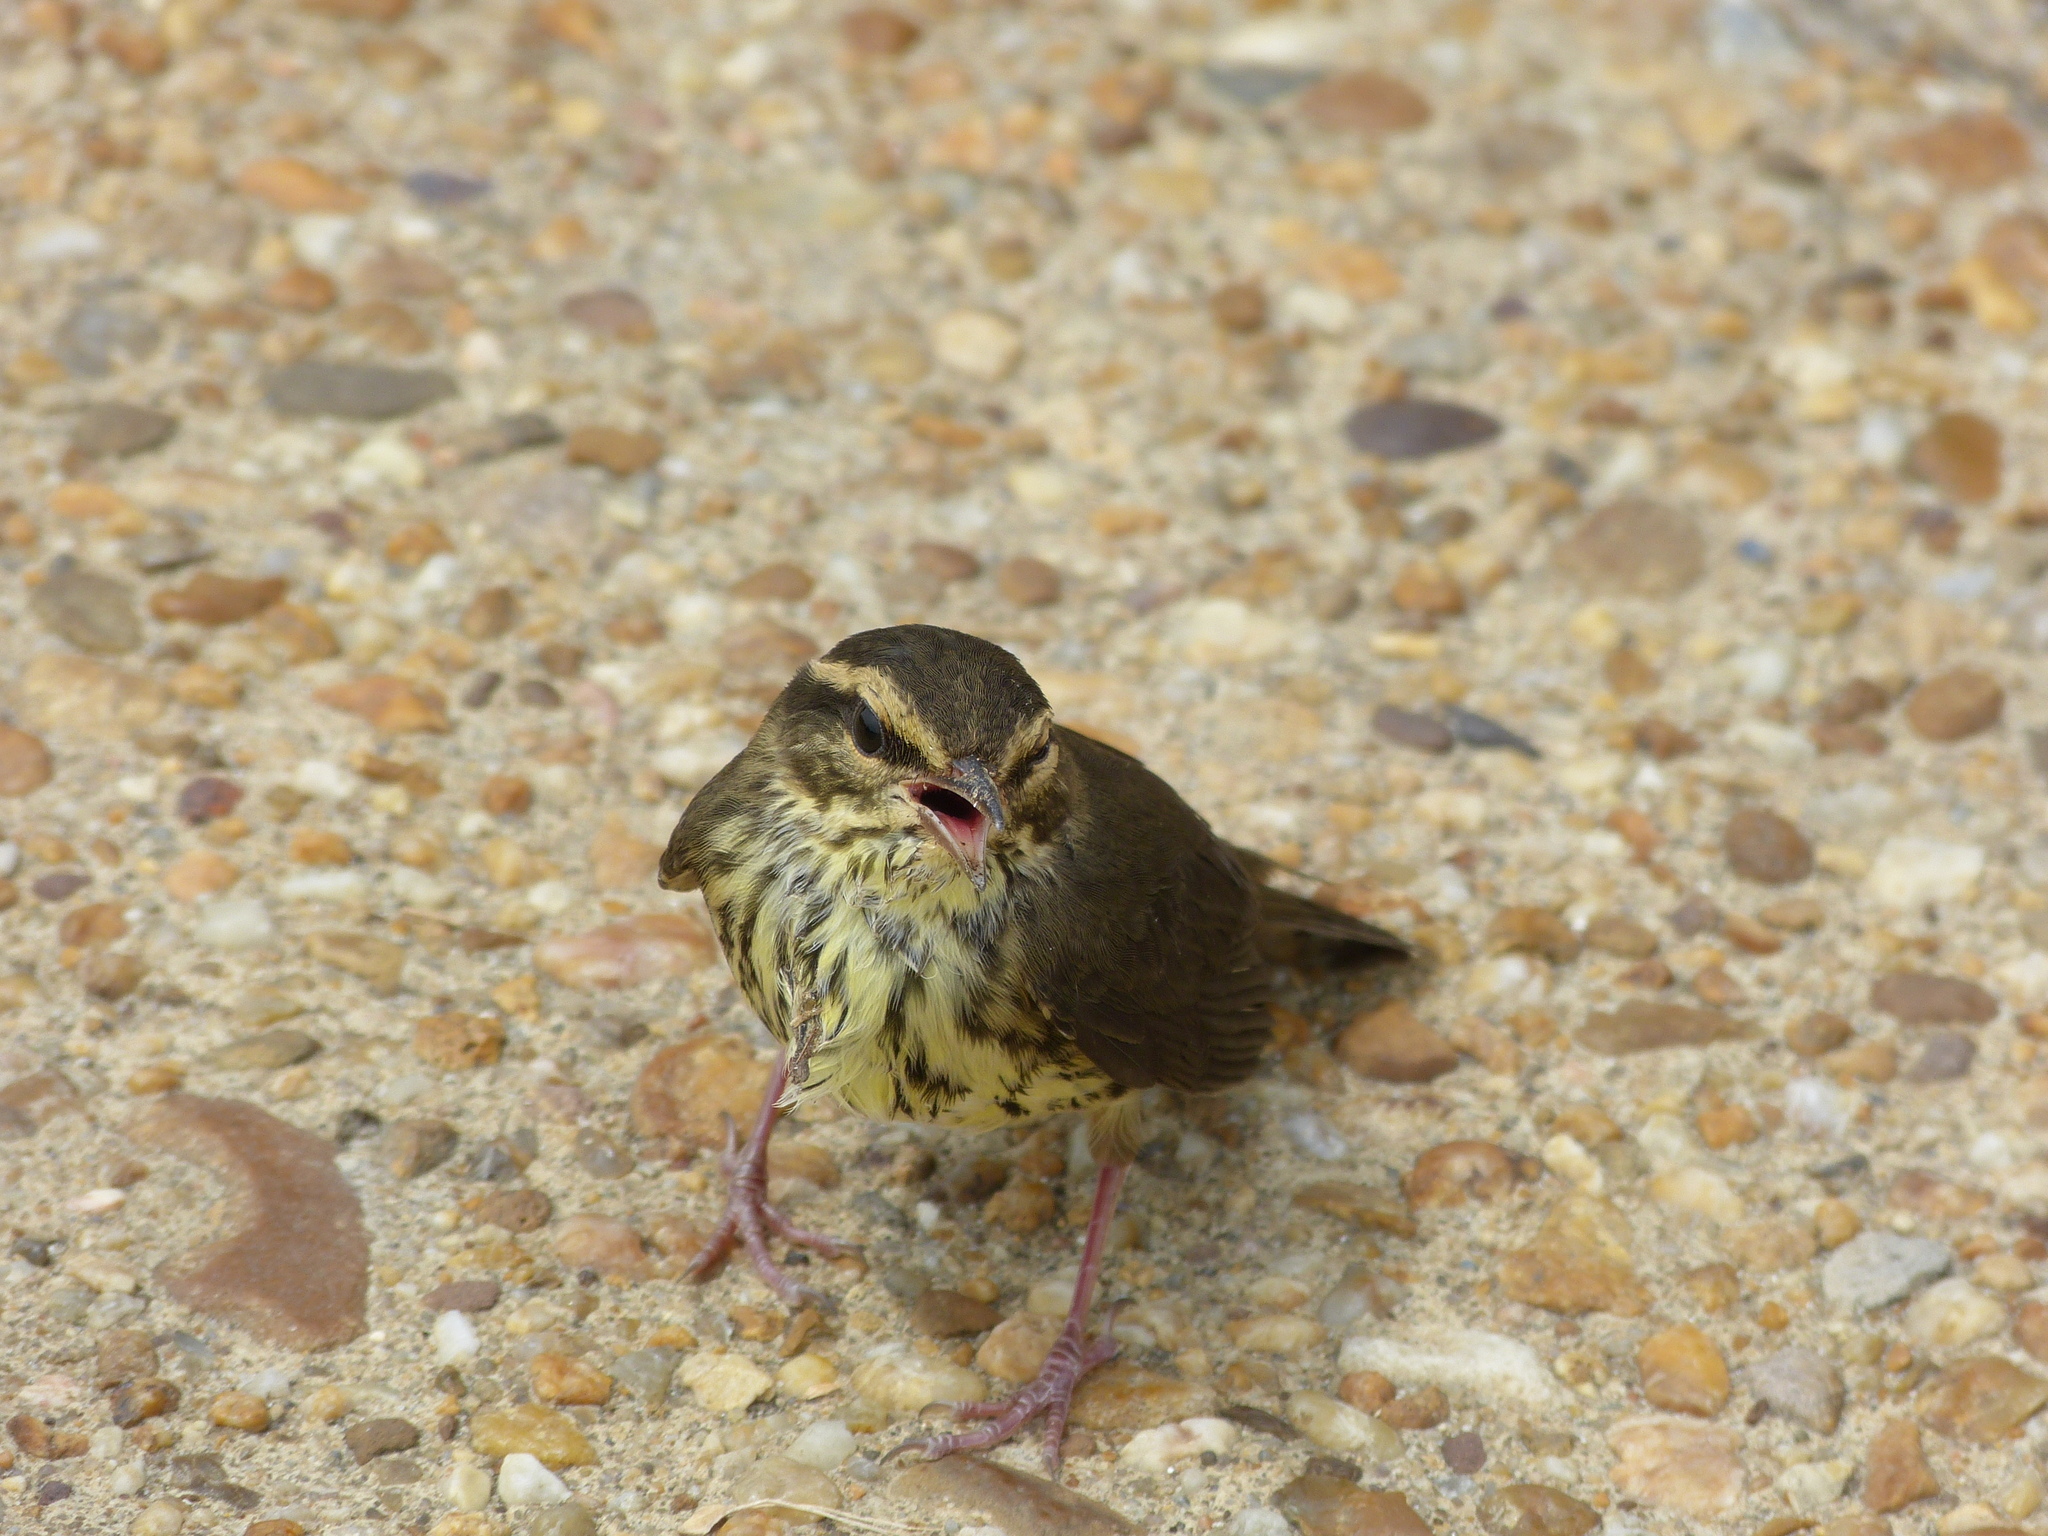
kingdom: Animalia
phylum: Chordata
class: Aves
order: Passeriformes
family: Parulidae
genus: Parkesia
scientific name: Parkesia noveboracensis
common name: Northern waterthrush
